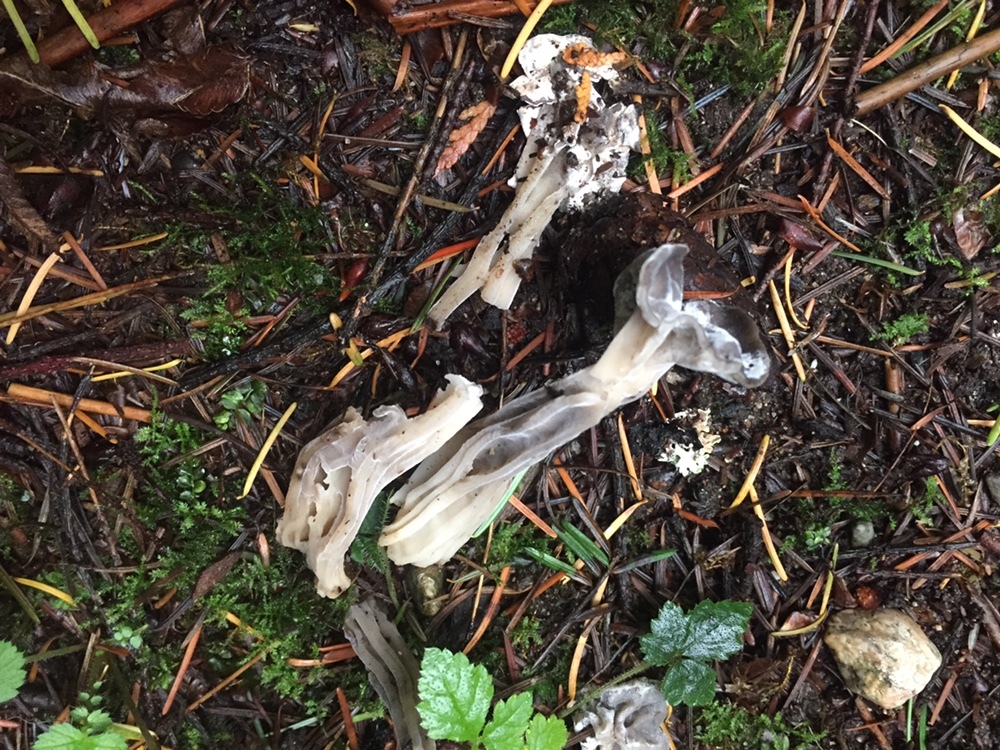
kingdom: Fungi
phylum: Ascomycota
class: Pezizomycetes
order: Pezizales
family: Helvellaceae
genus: Helvella
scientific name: Helvella vespertina
